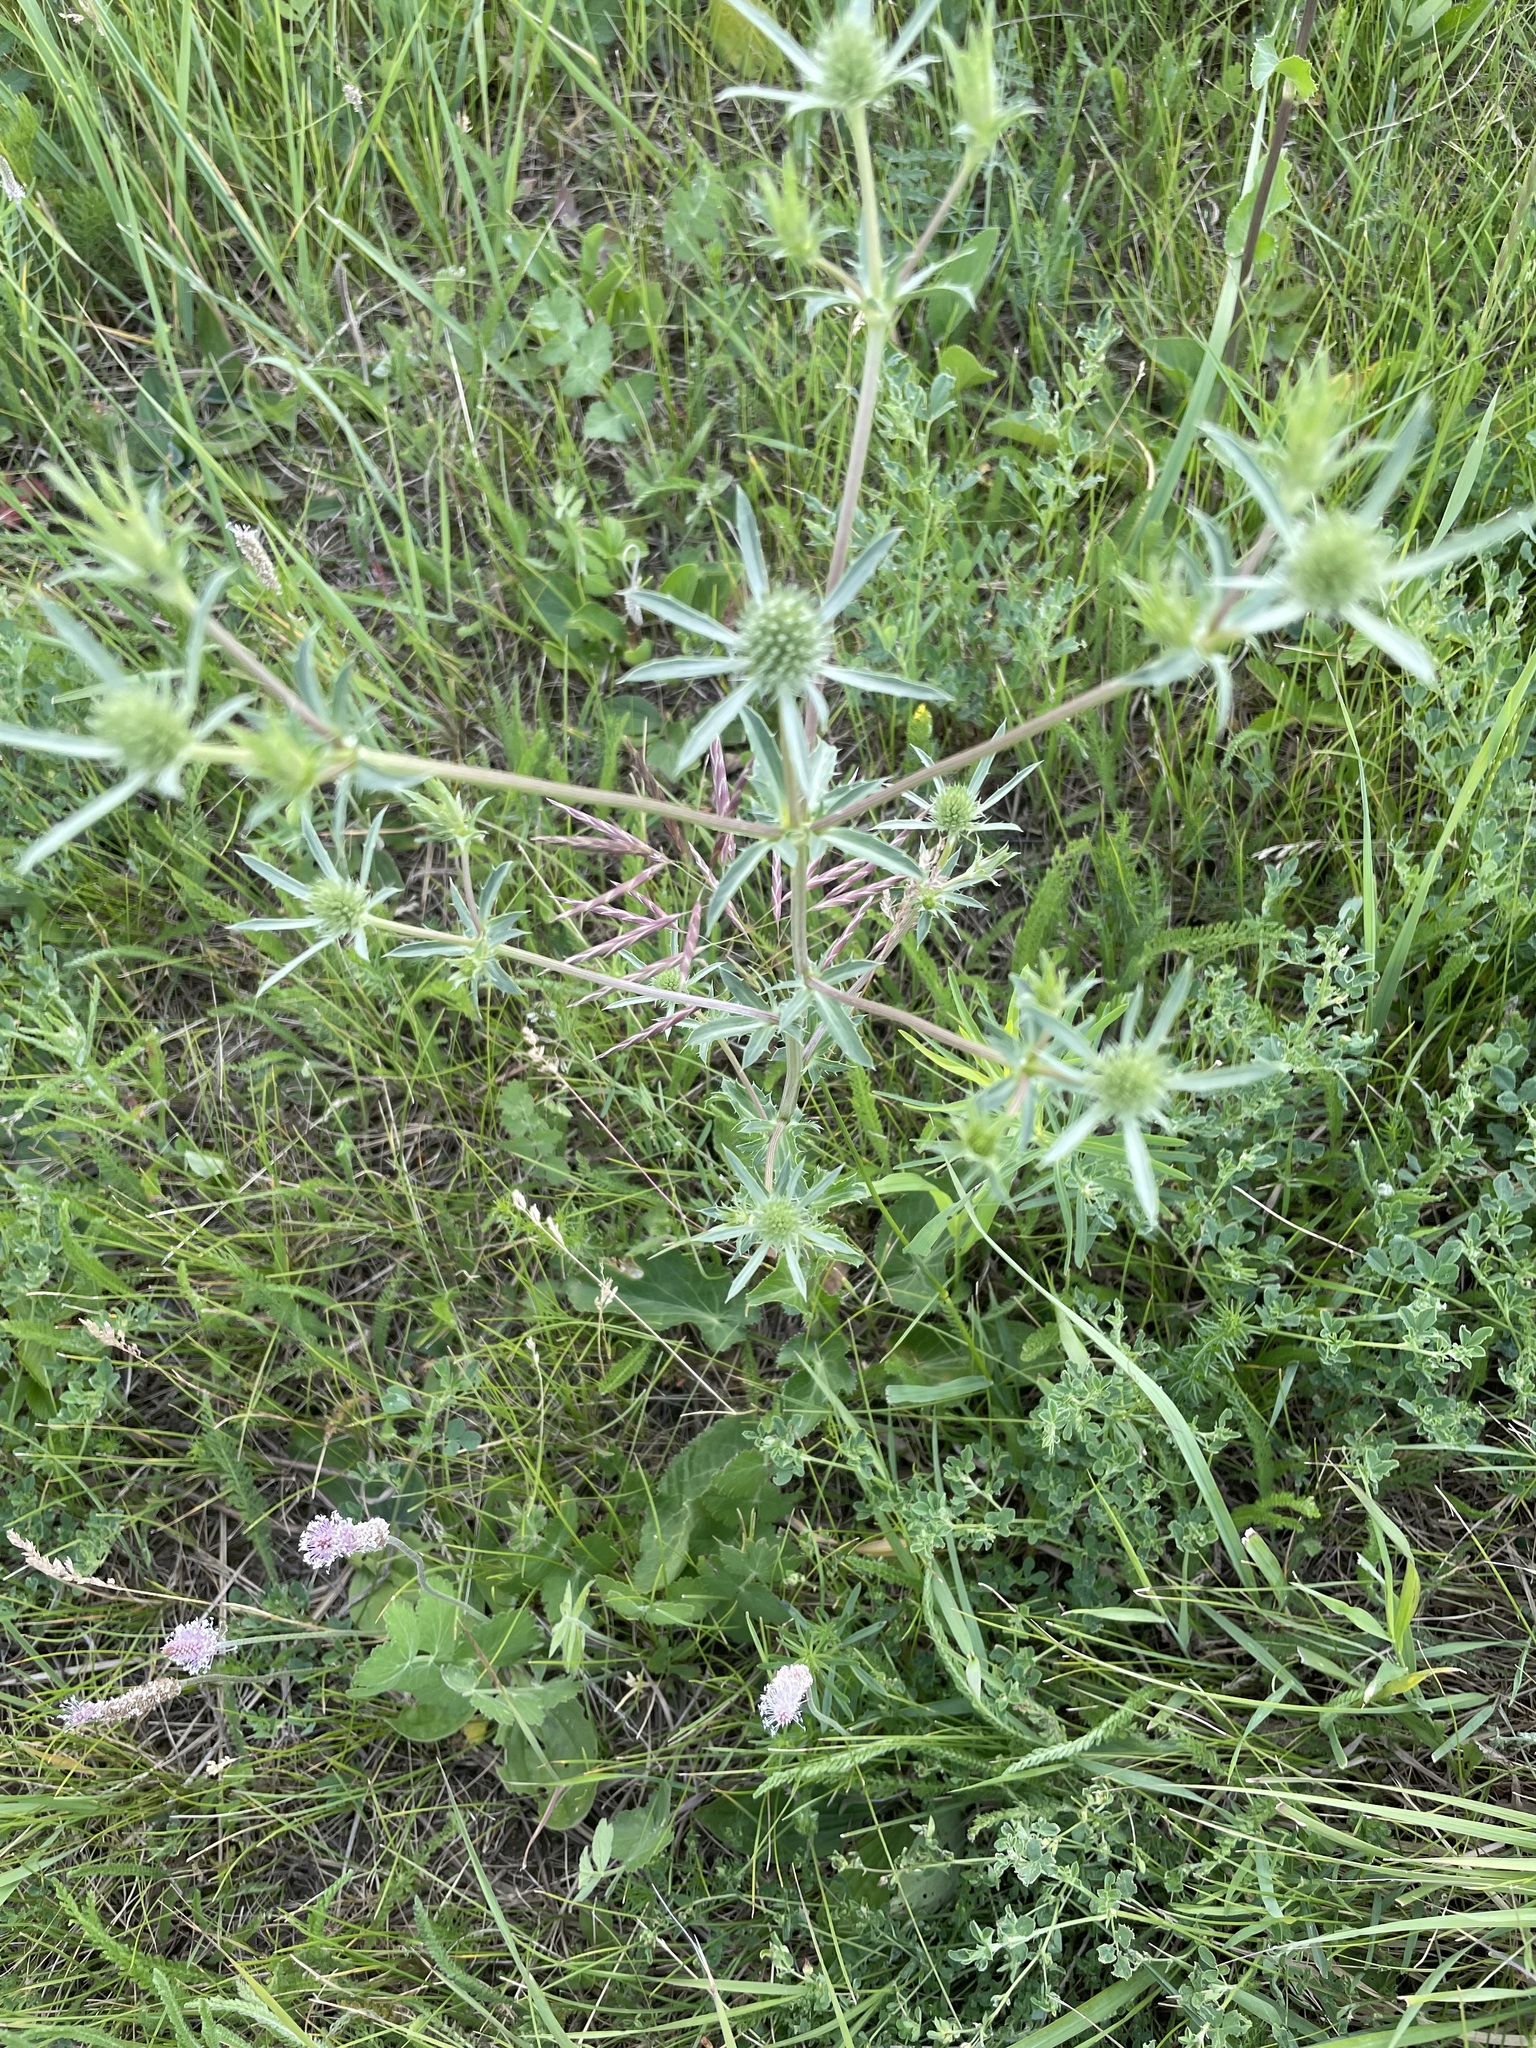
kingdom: Plantae
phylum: Tracheophyta
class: Magnoliopsida
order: Apiales
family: Apiaceae
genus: Eryngium
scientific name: Eryngium planum
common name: Blue eryngo
